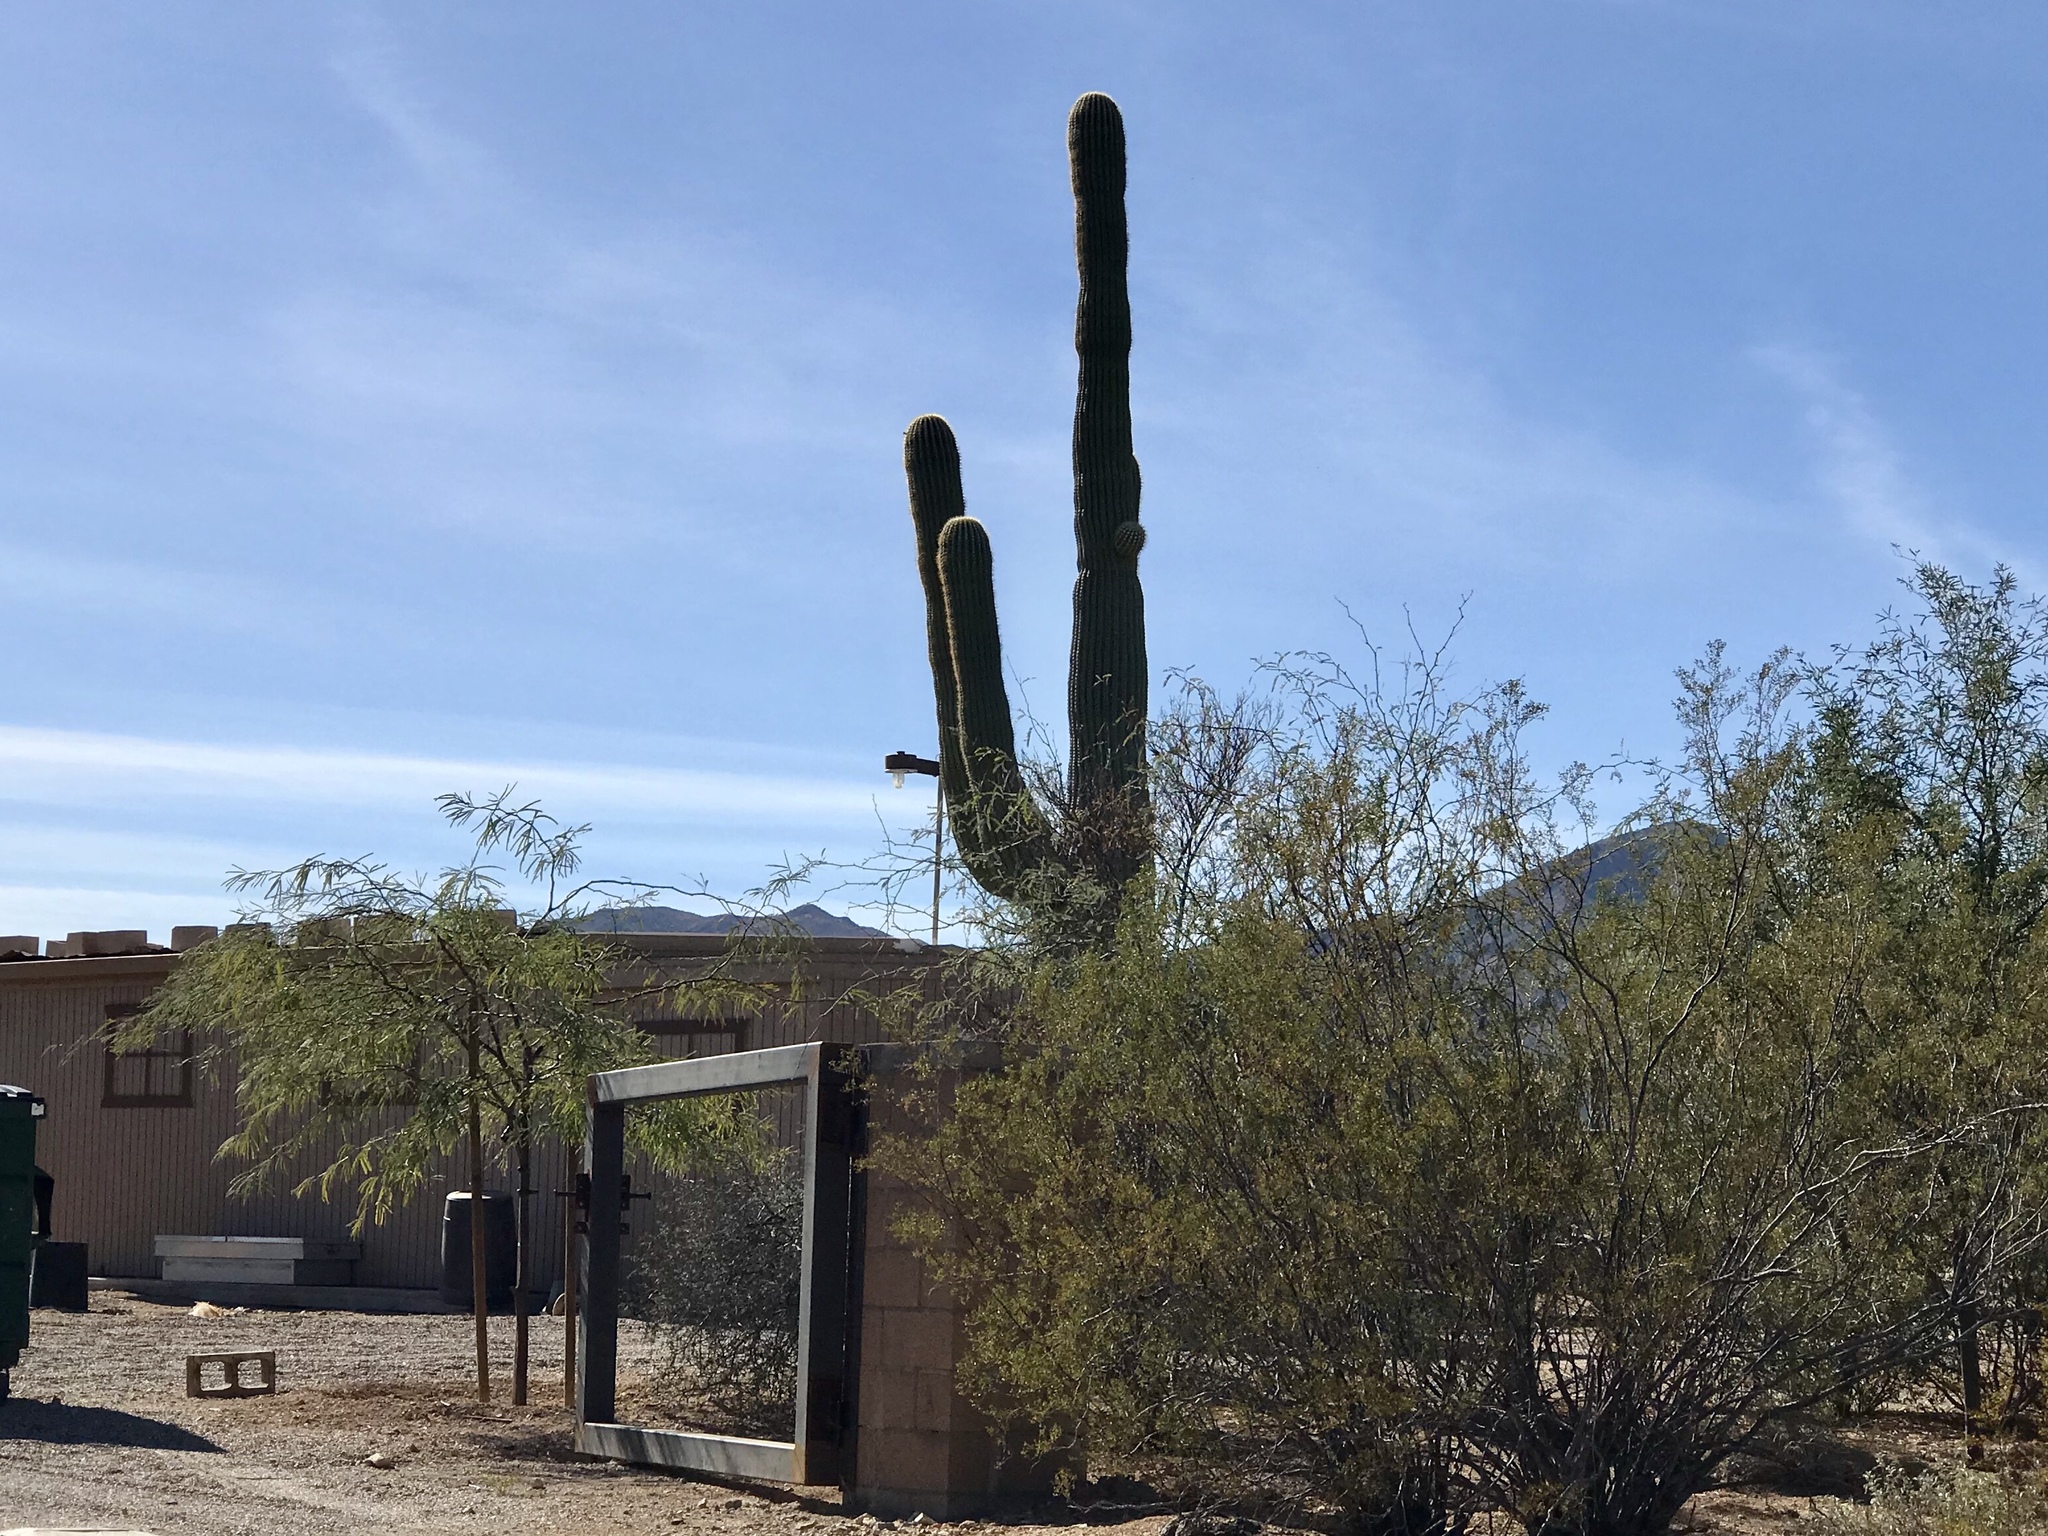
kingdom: Plantae
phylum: Tracheophyta
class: Magnoliopsida
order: Caryophyllales
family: Cactaceae
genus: Carnegiea
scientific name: Carnegiea gigantea
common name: Saguaro
